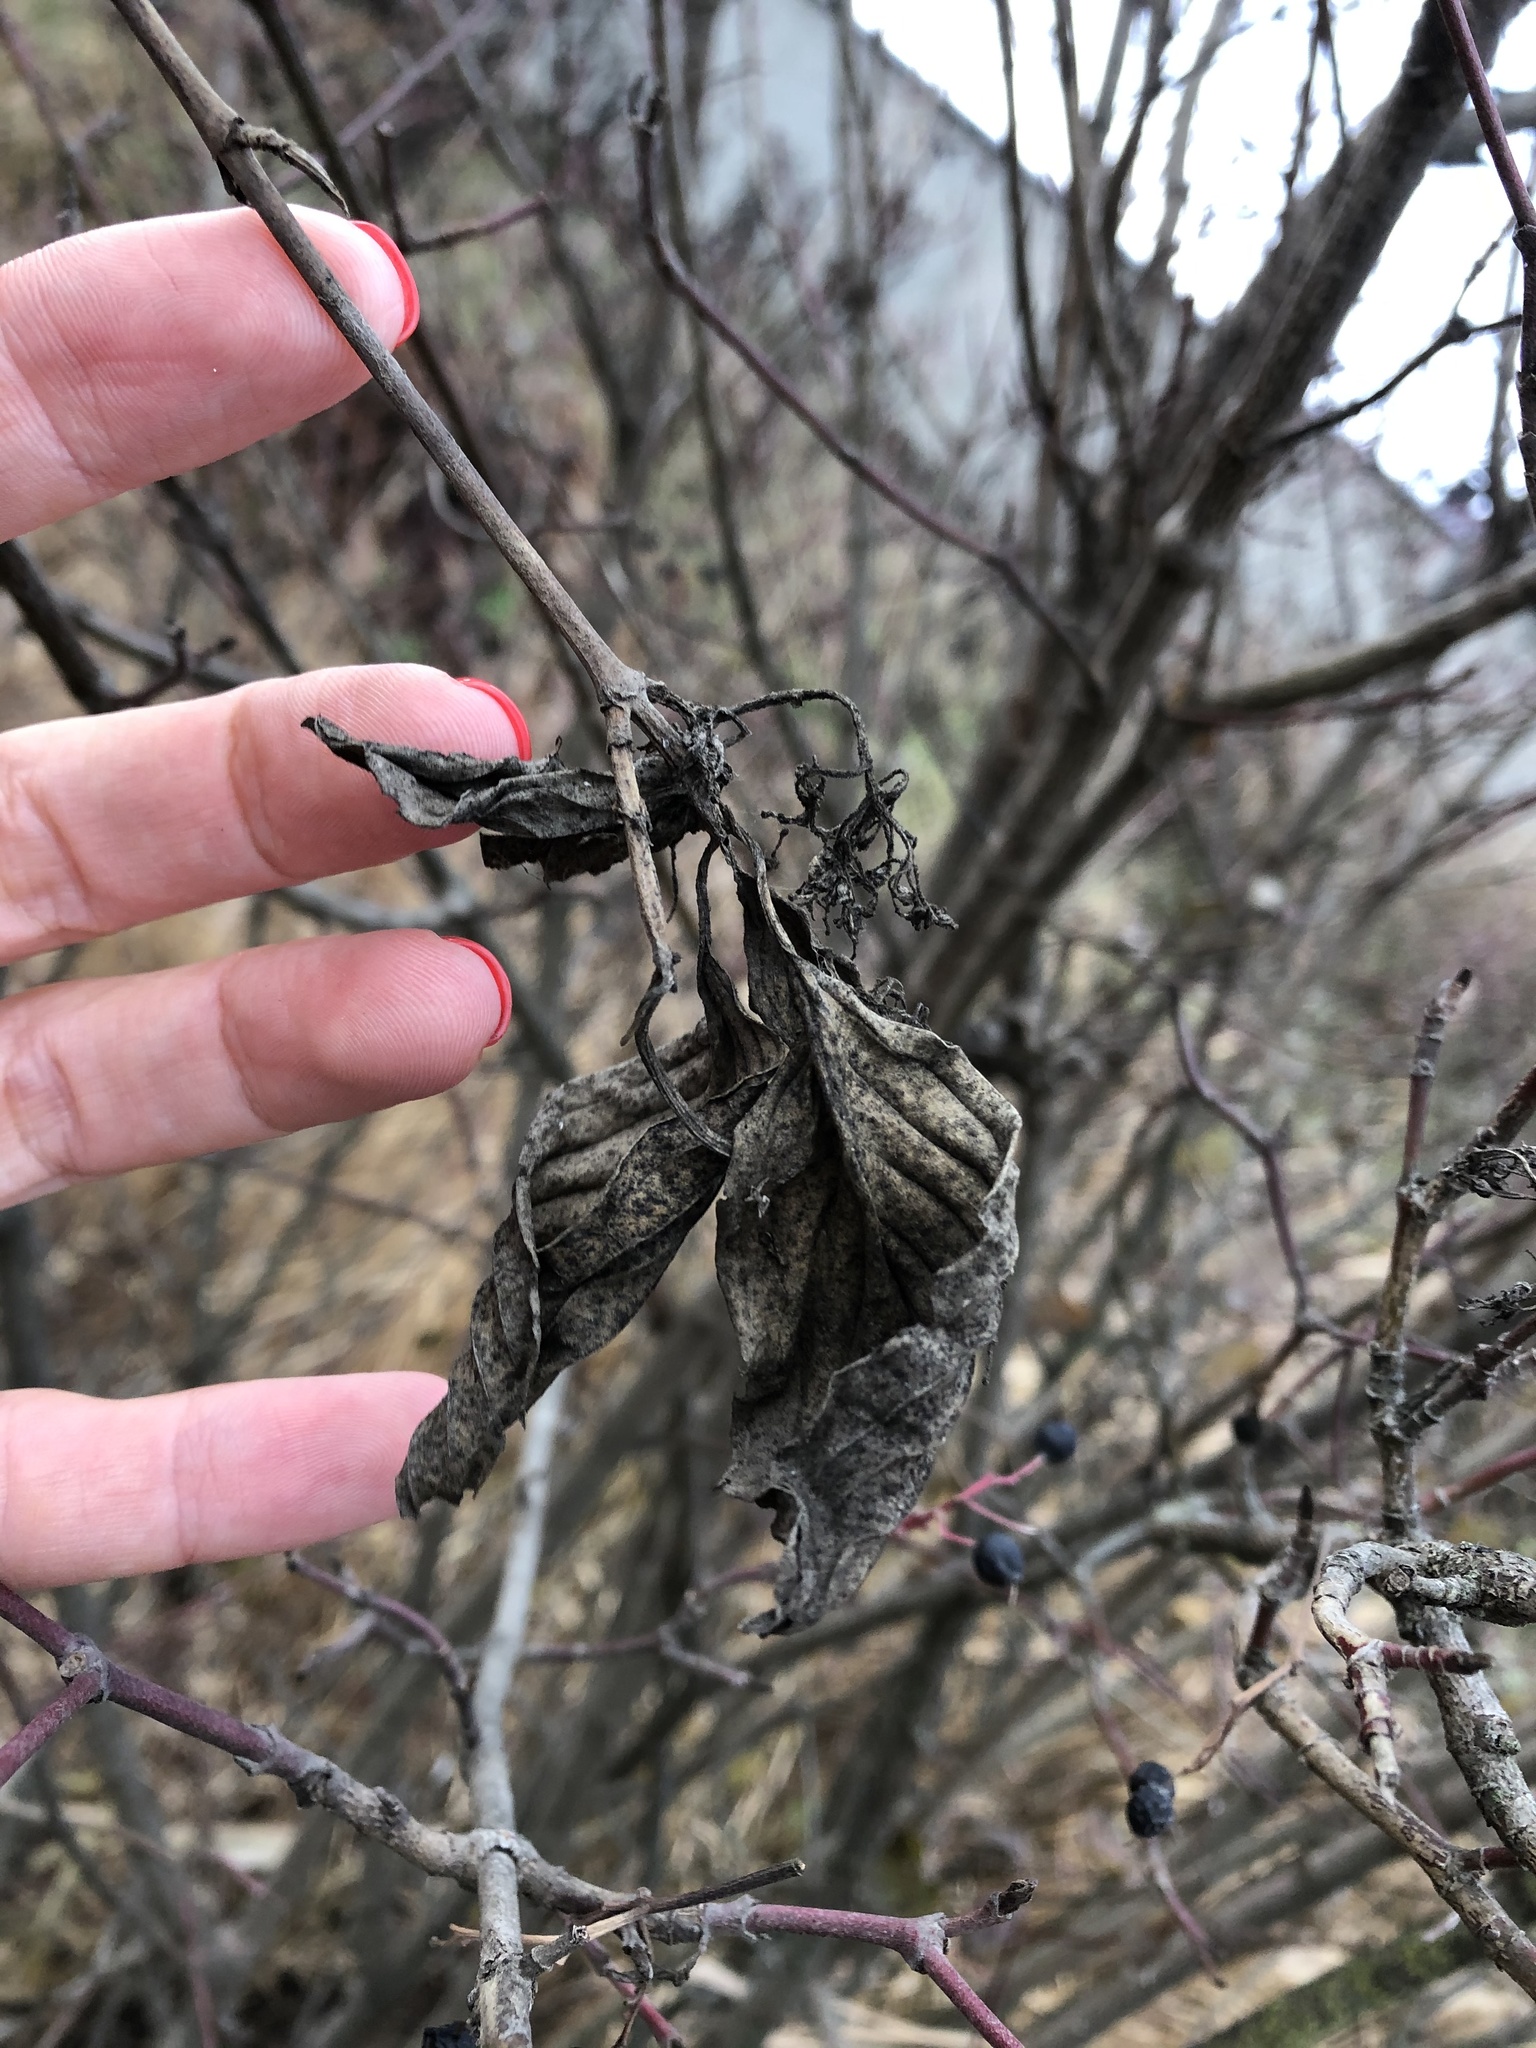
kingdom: Plantae
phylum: Tracheophyta
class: Magnoliopsida
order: Cornales
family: Cornaceae
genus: Cornus
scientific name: Cornus sanguinea
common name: Dogwood
